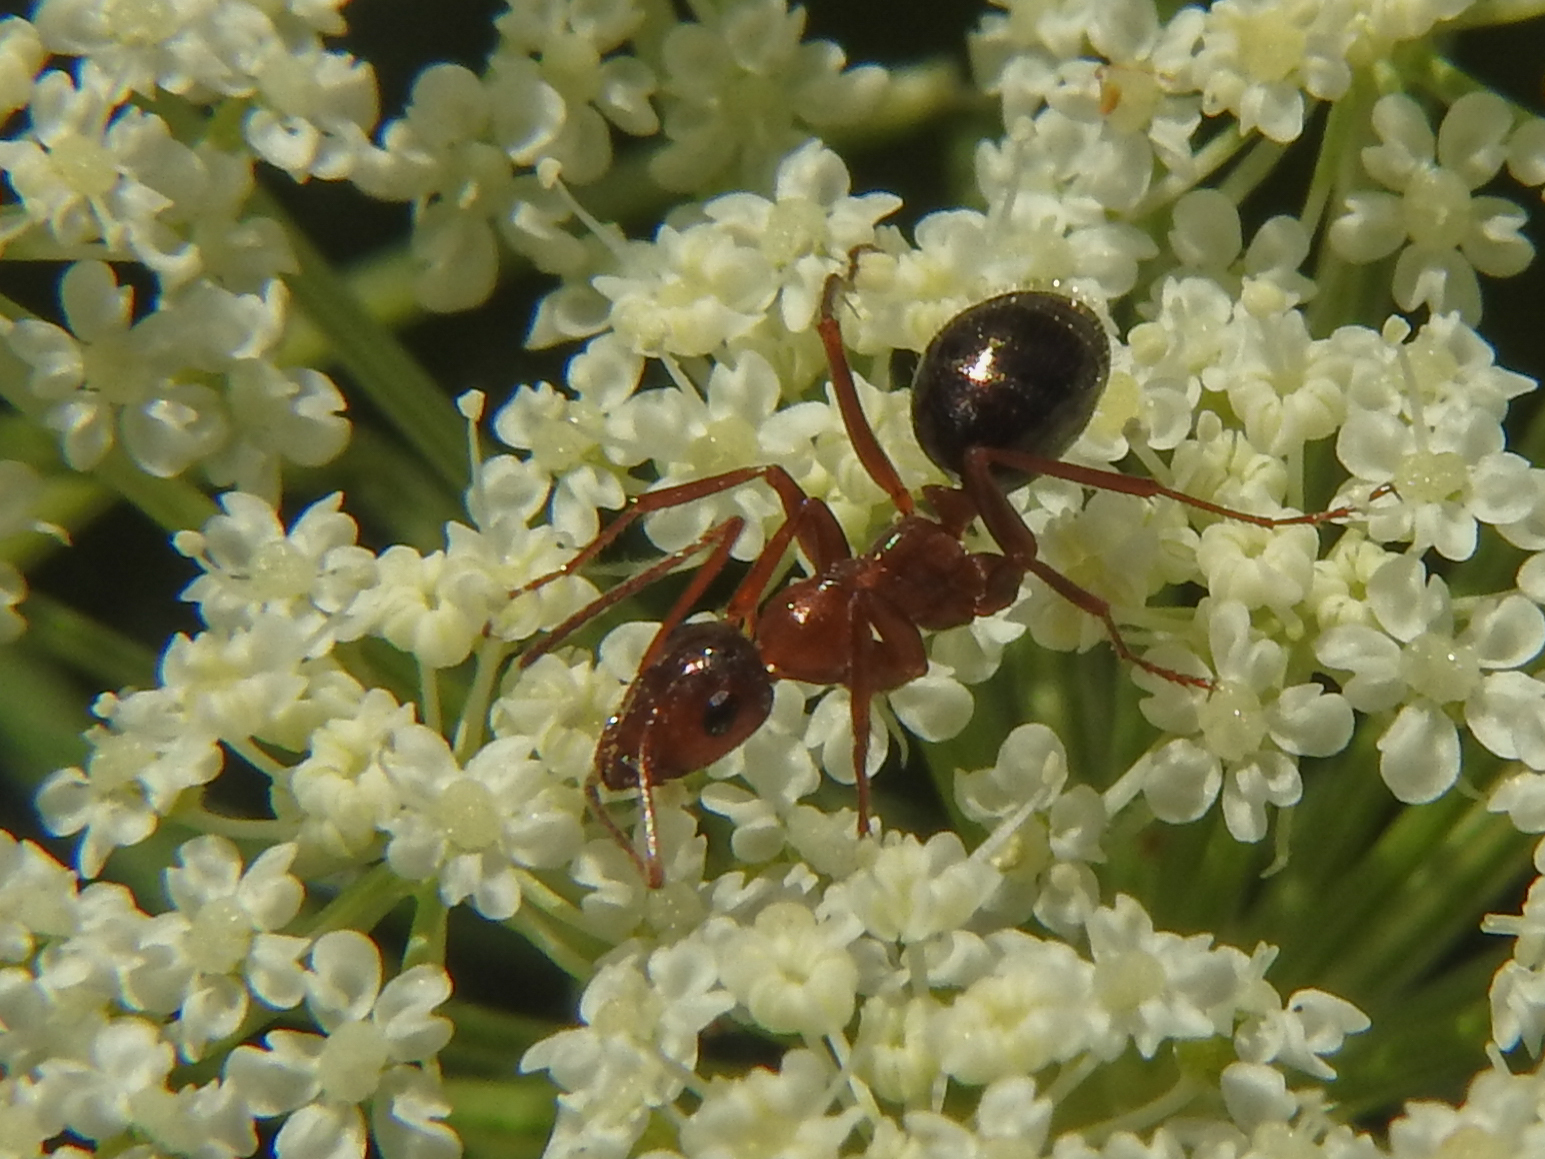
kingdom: Animalia
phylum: Arthropoda
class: Insecta
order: Hymenoptera
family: Formicidae
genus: Formica
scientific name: Formica incerta
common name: Uncertain field ant
